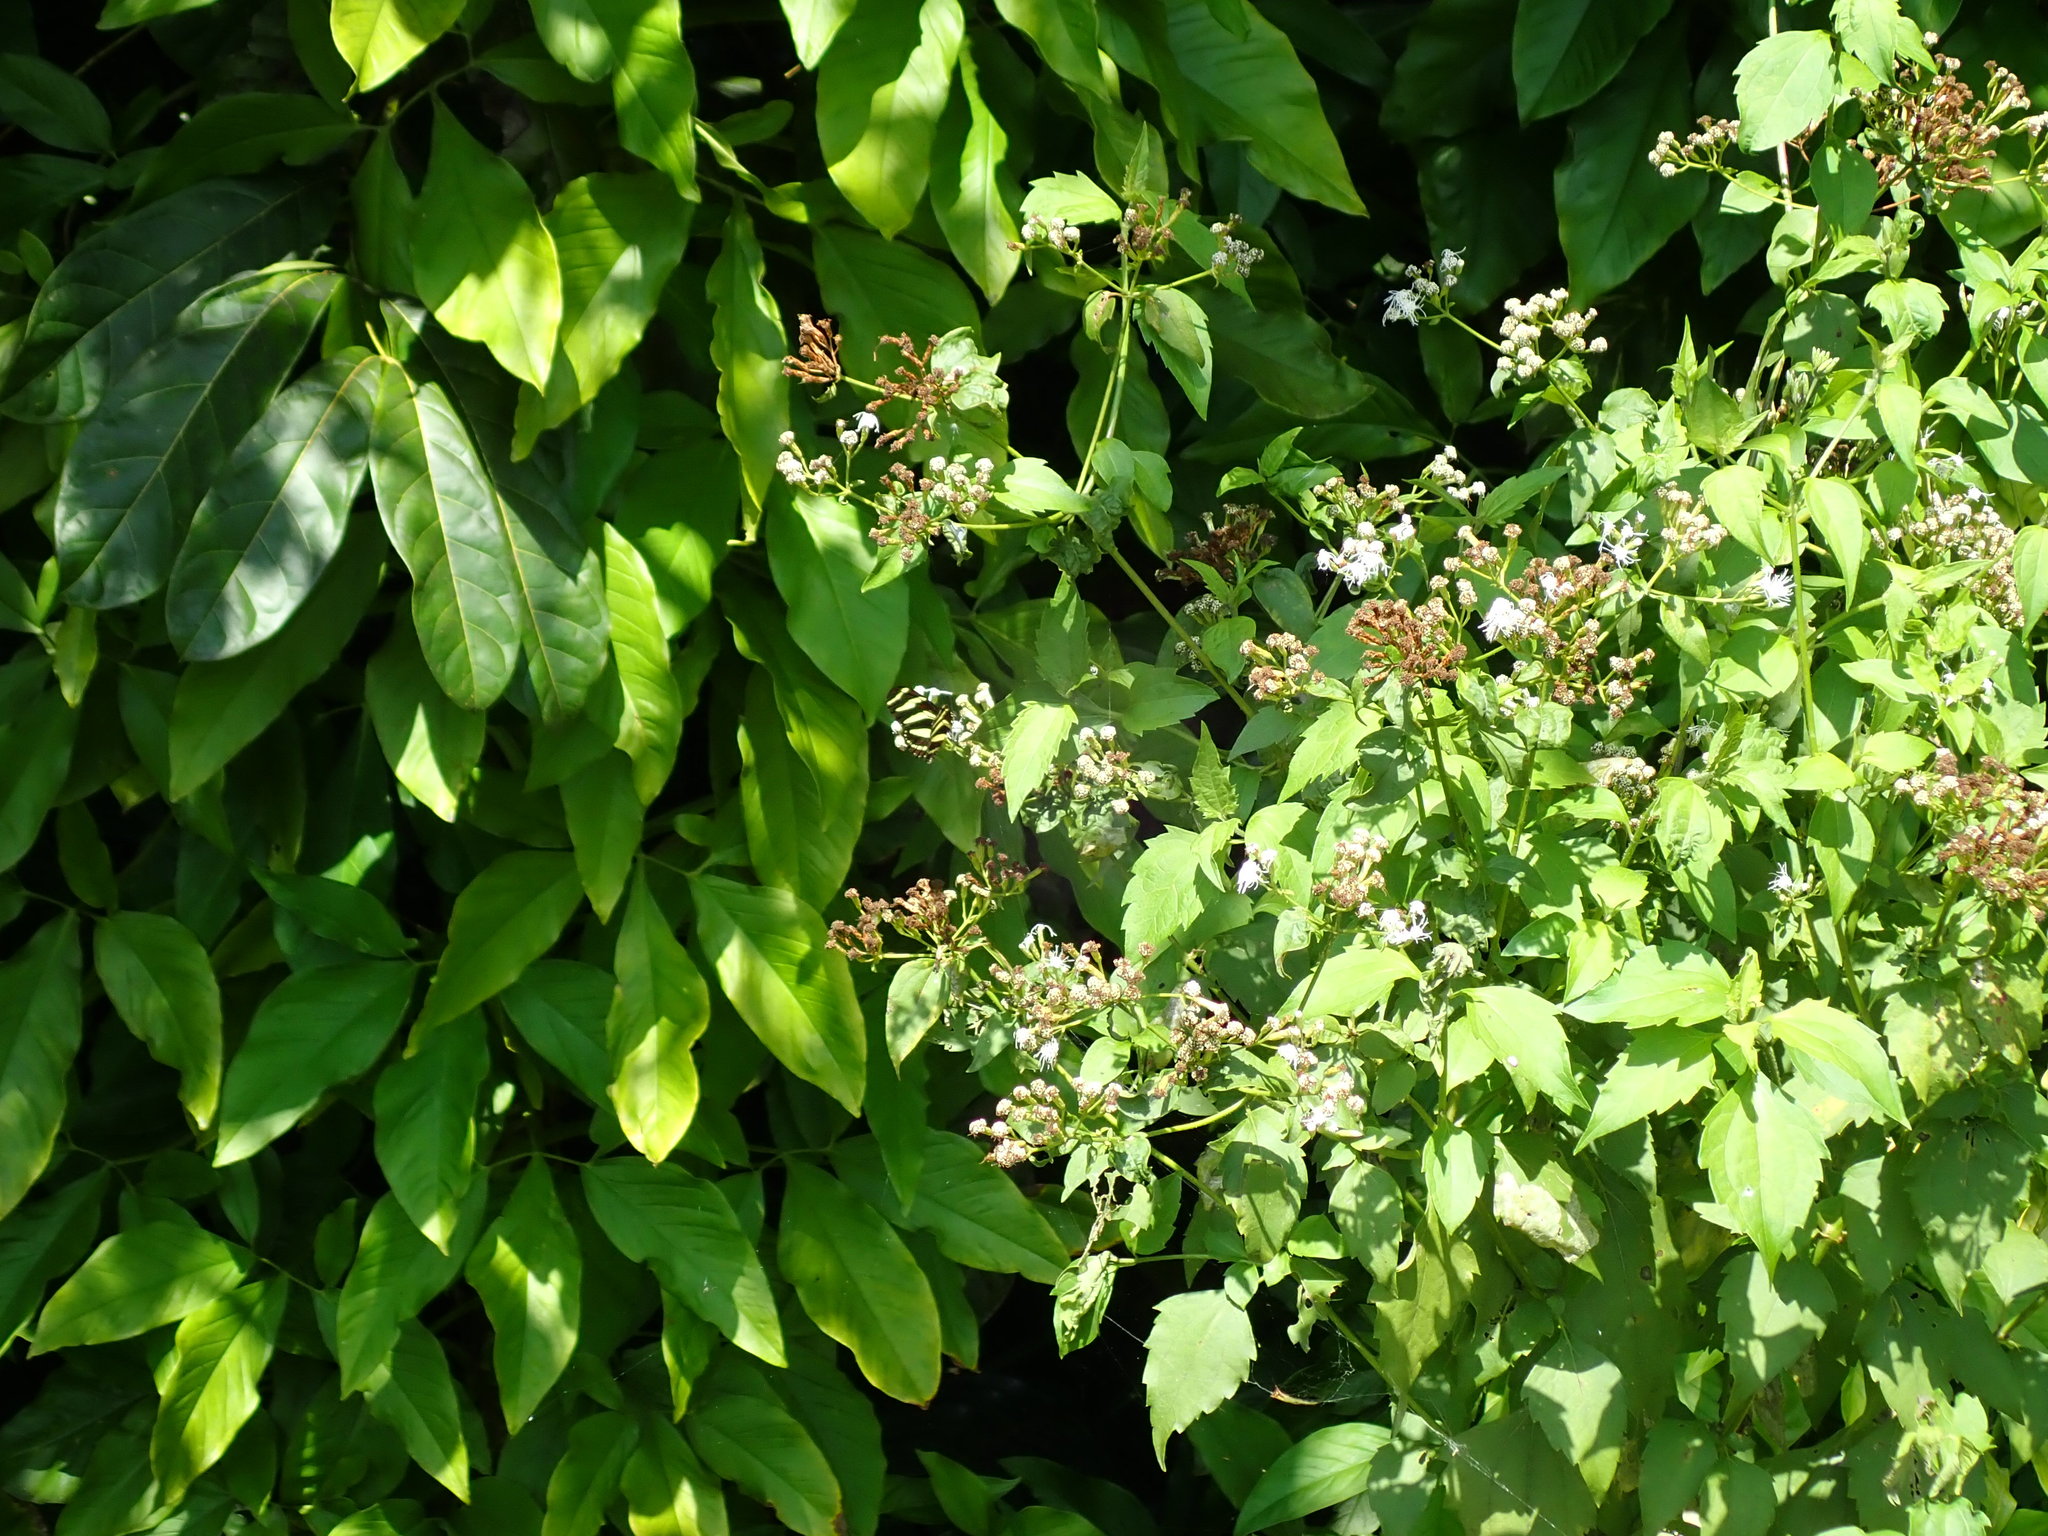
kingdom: Animalia
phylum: Arthropoda
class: Insecta
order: Lepidoptera
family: Nymphalidae
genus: Heliconius
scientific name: Heliconius charithonia
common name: Zebra long wing
